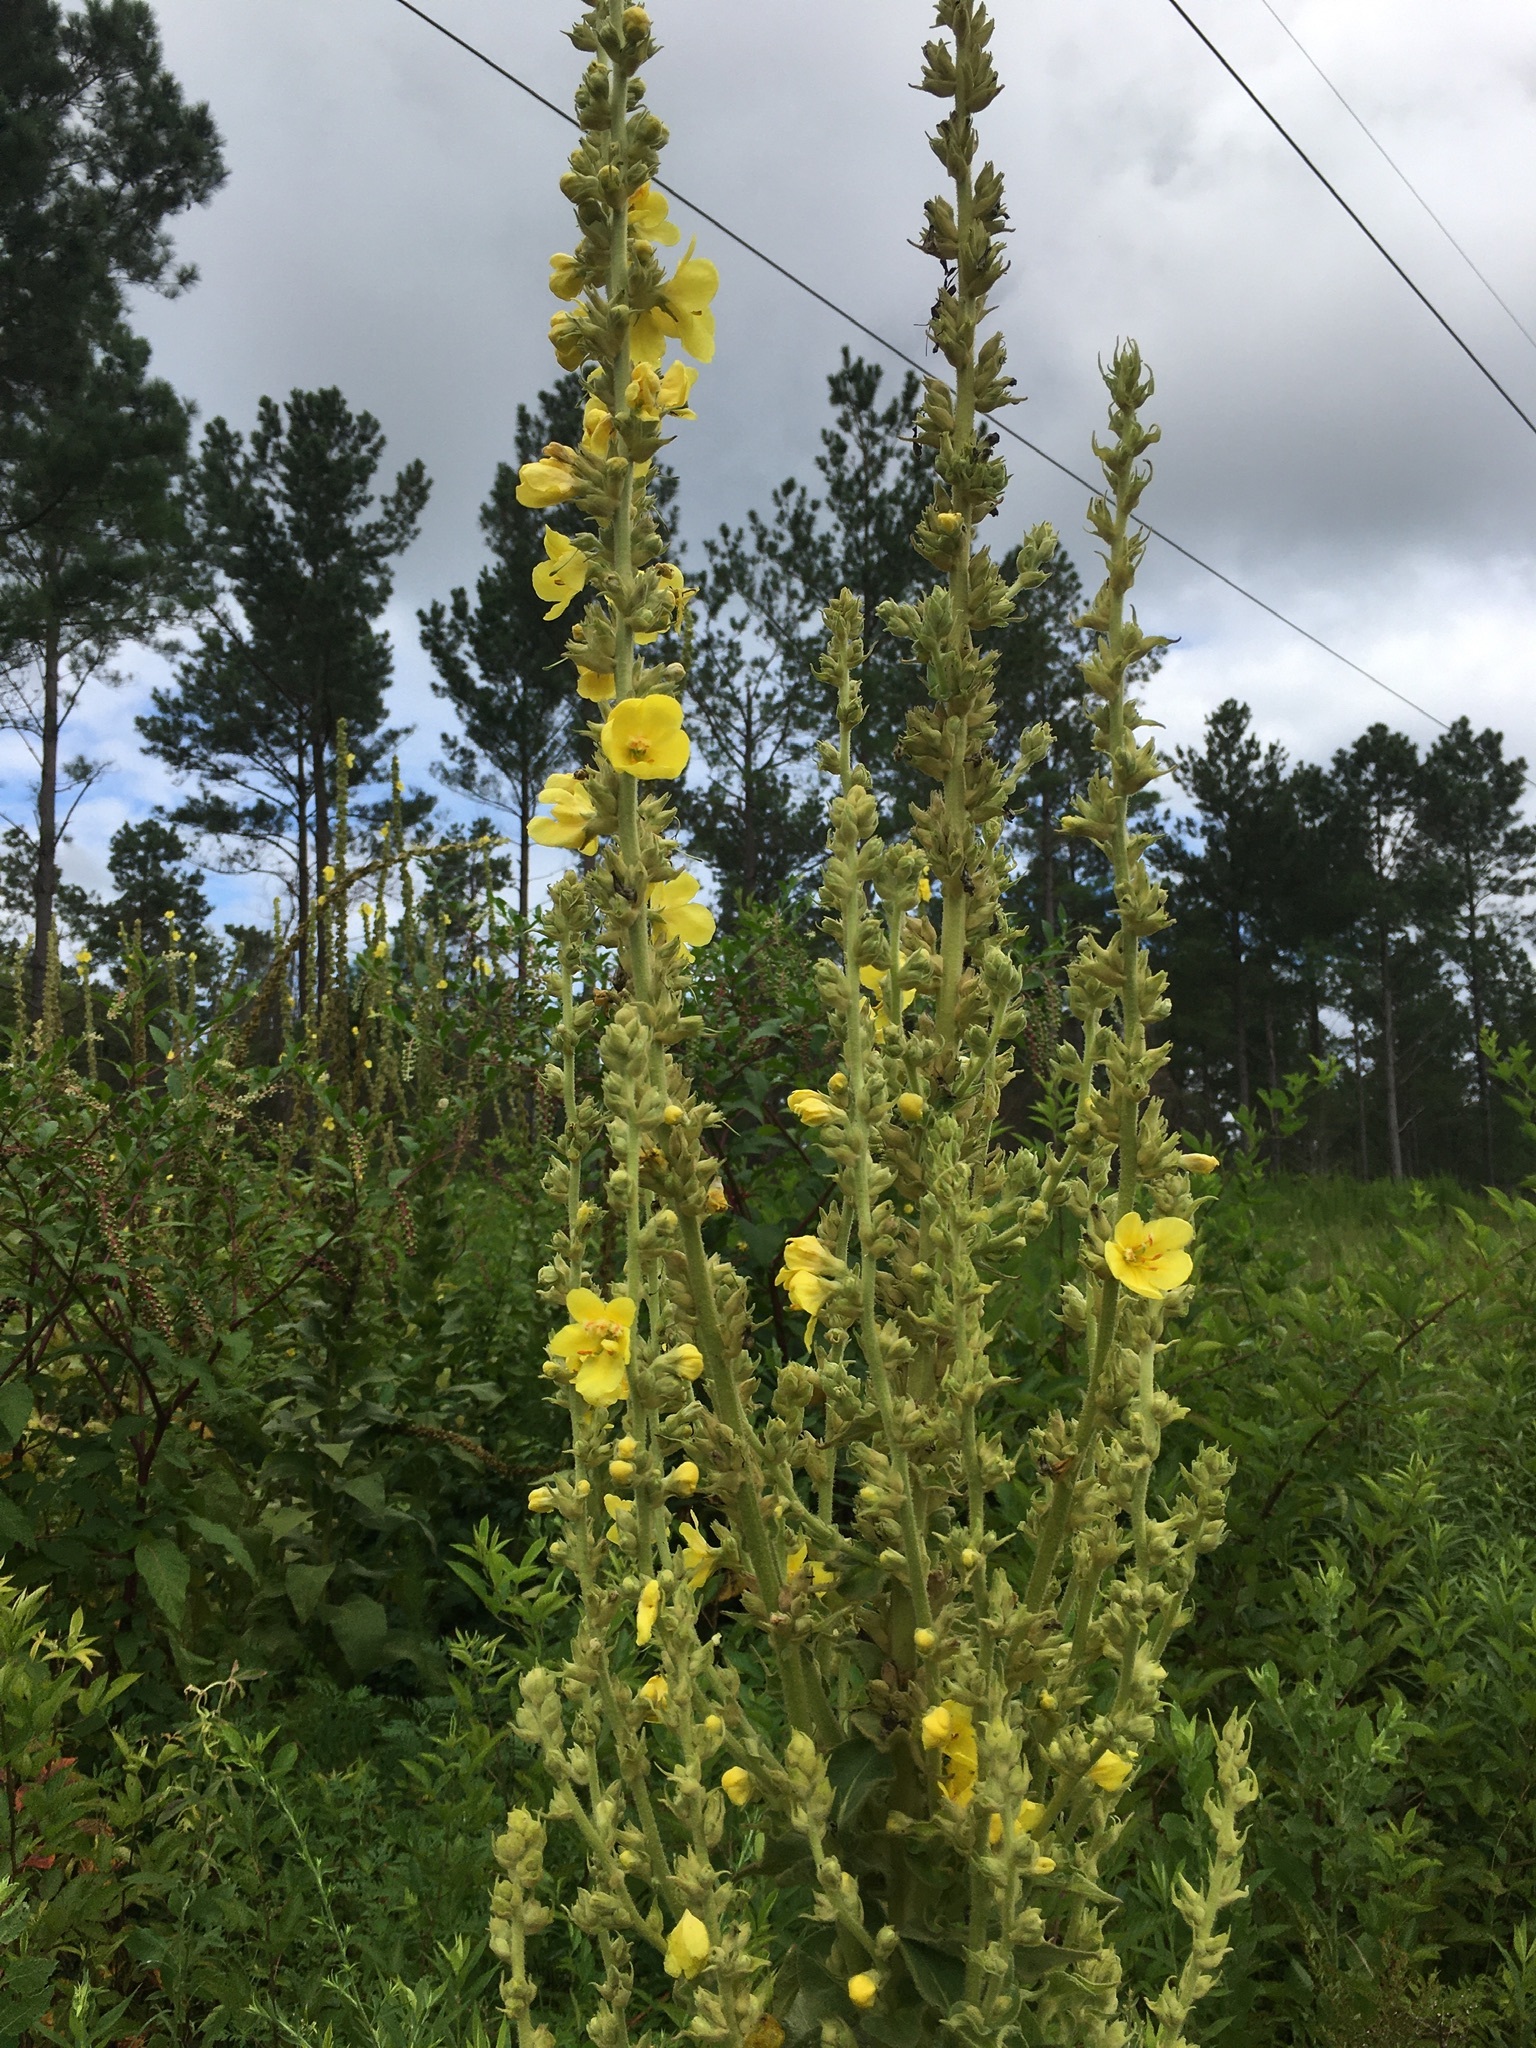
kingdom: Plantae
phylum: Tracheophyta
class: Magnoliopsida
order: Lamiales
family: Scrophulariaceae
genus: Verbascum
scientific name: Verbascum phlomoides
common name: Orange mullein
